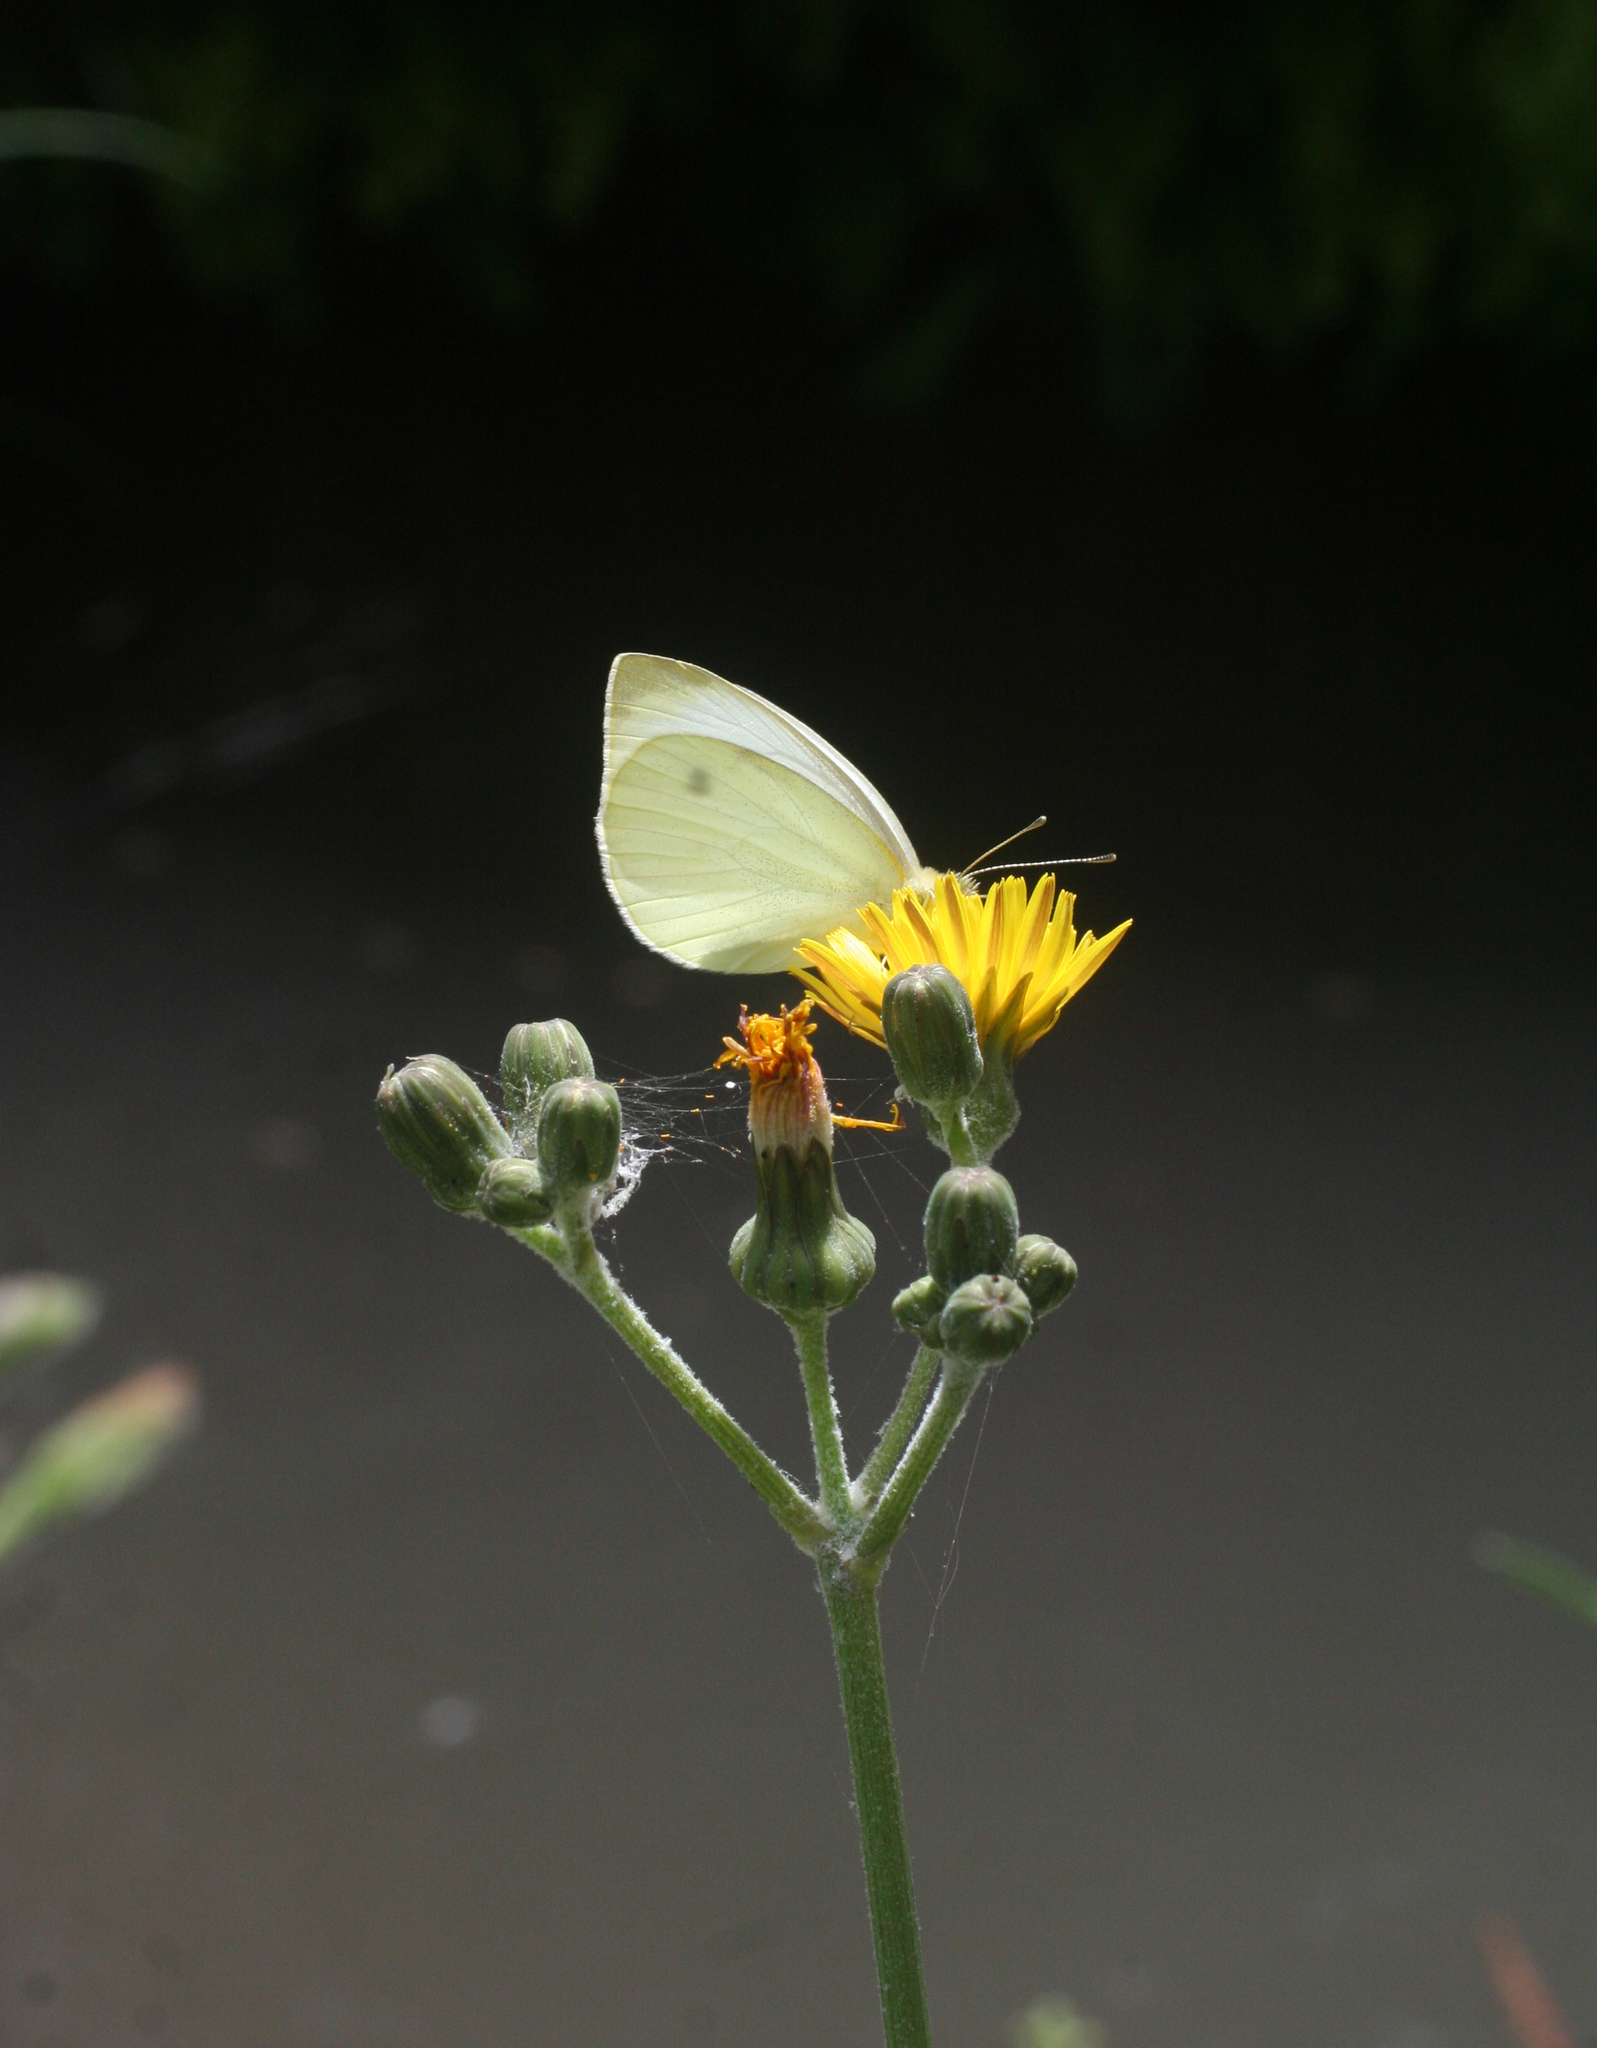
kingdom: Animalia
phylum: Arthropoda
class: Insecta
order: Lepidoptera
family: Pieridae
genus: Pieris
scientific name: Pieris rapae
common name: Small white
